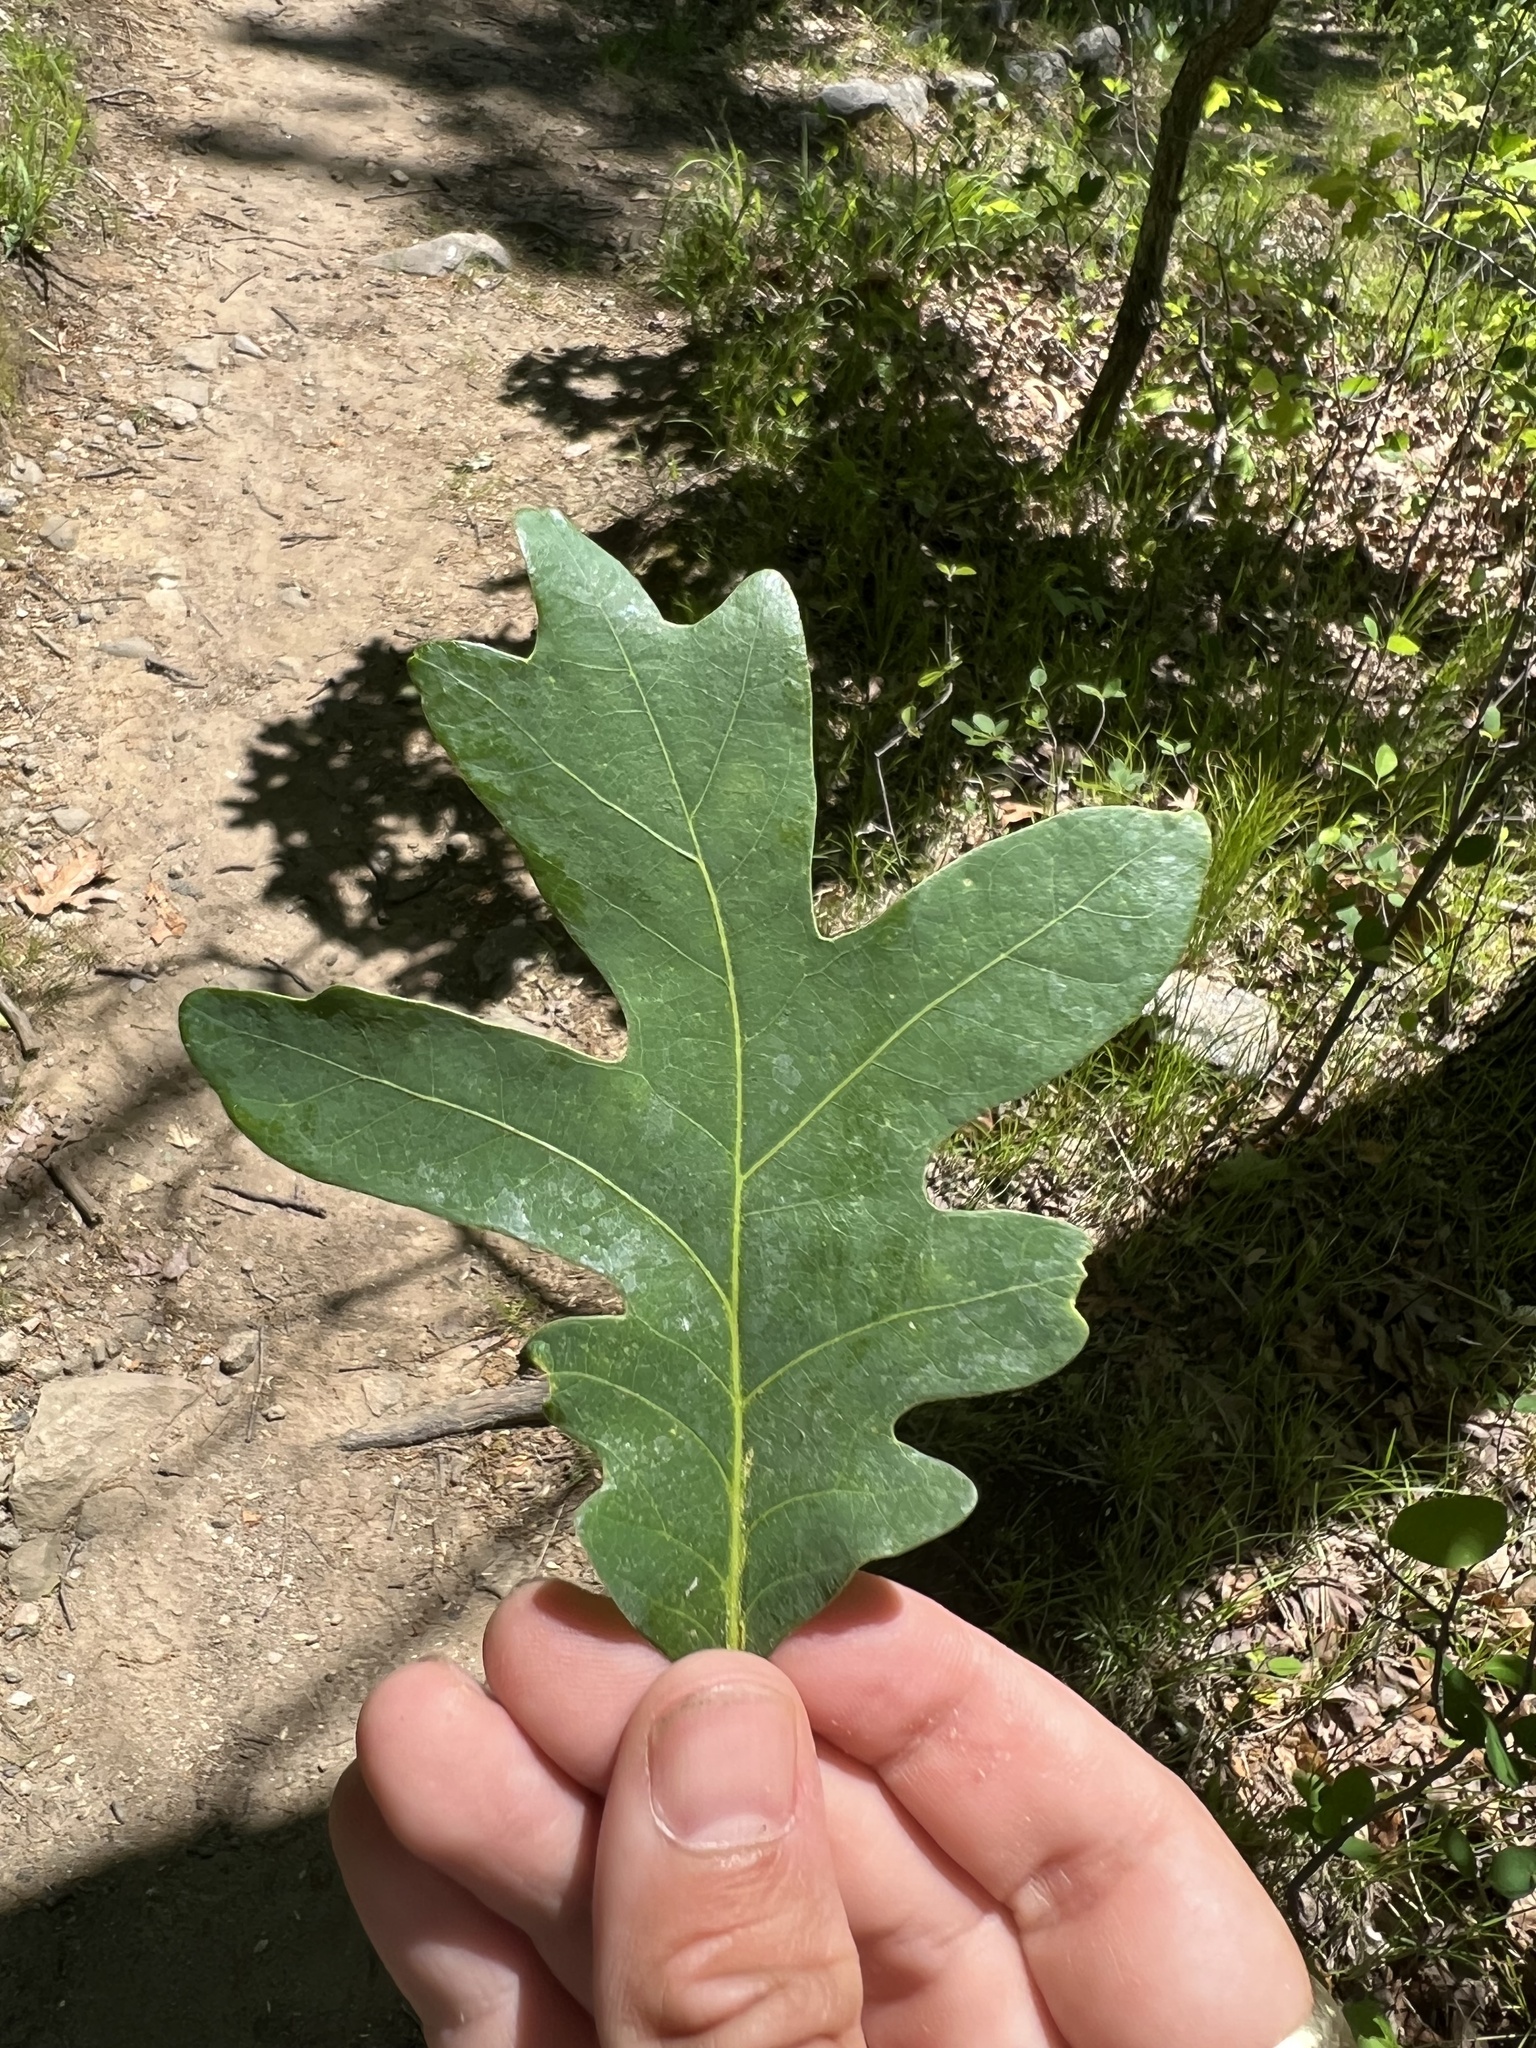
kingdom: Plantae
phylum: Tracheophyta
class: Magnoliopsida
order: Fagales
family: Fagaceae
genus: Quercus
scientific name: Quercus alba
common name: White oak
